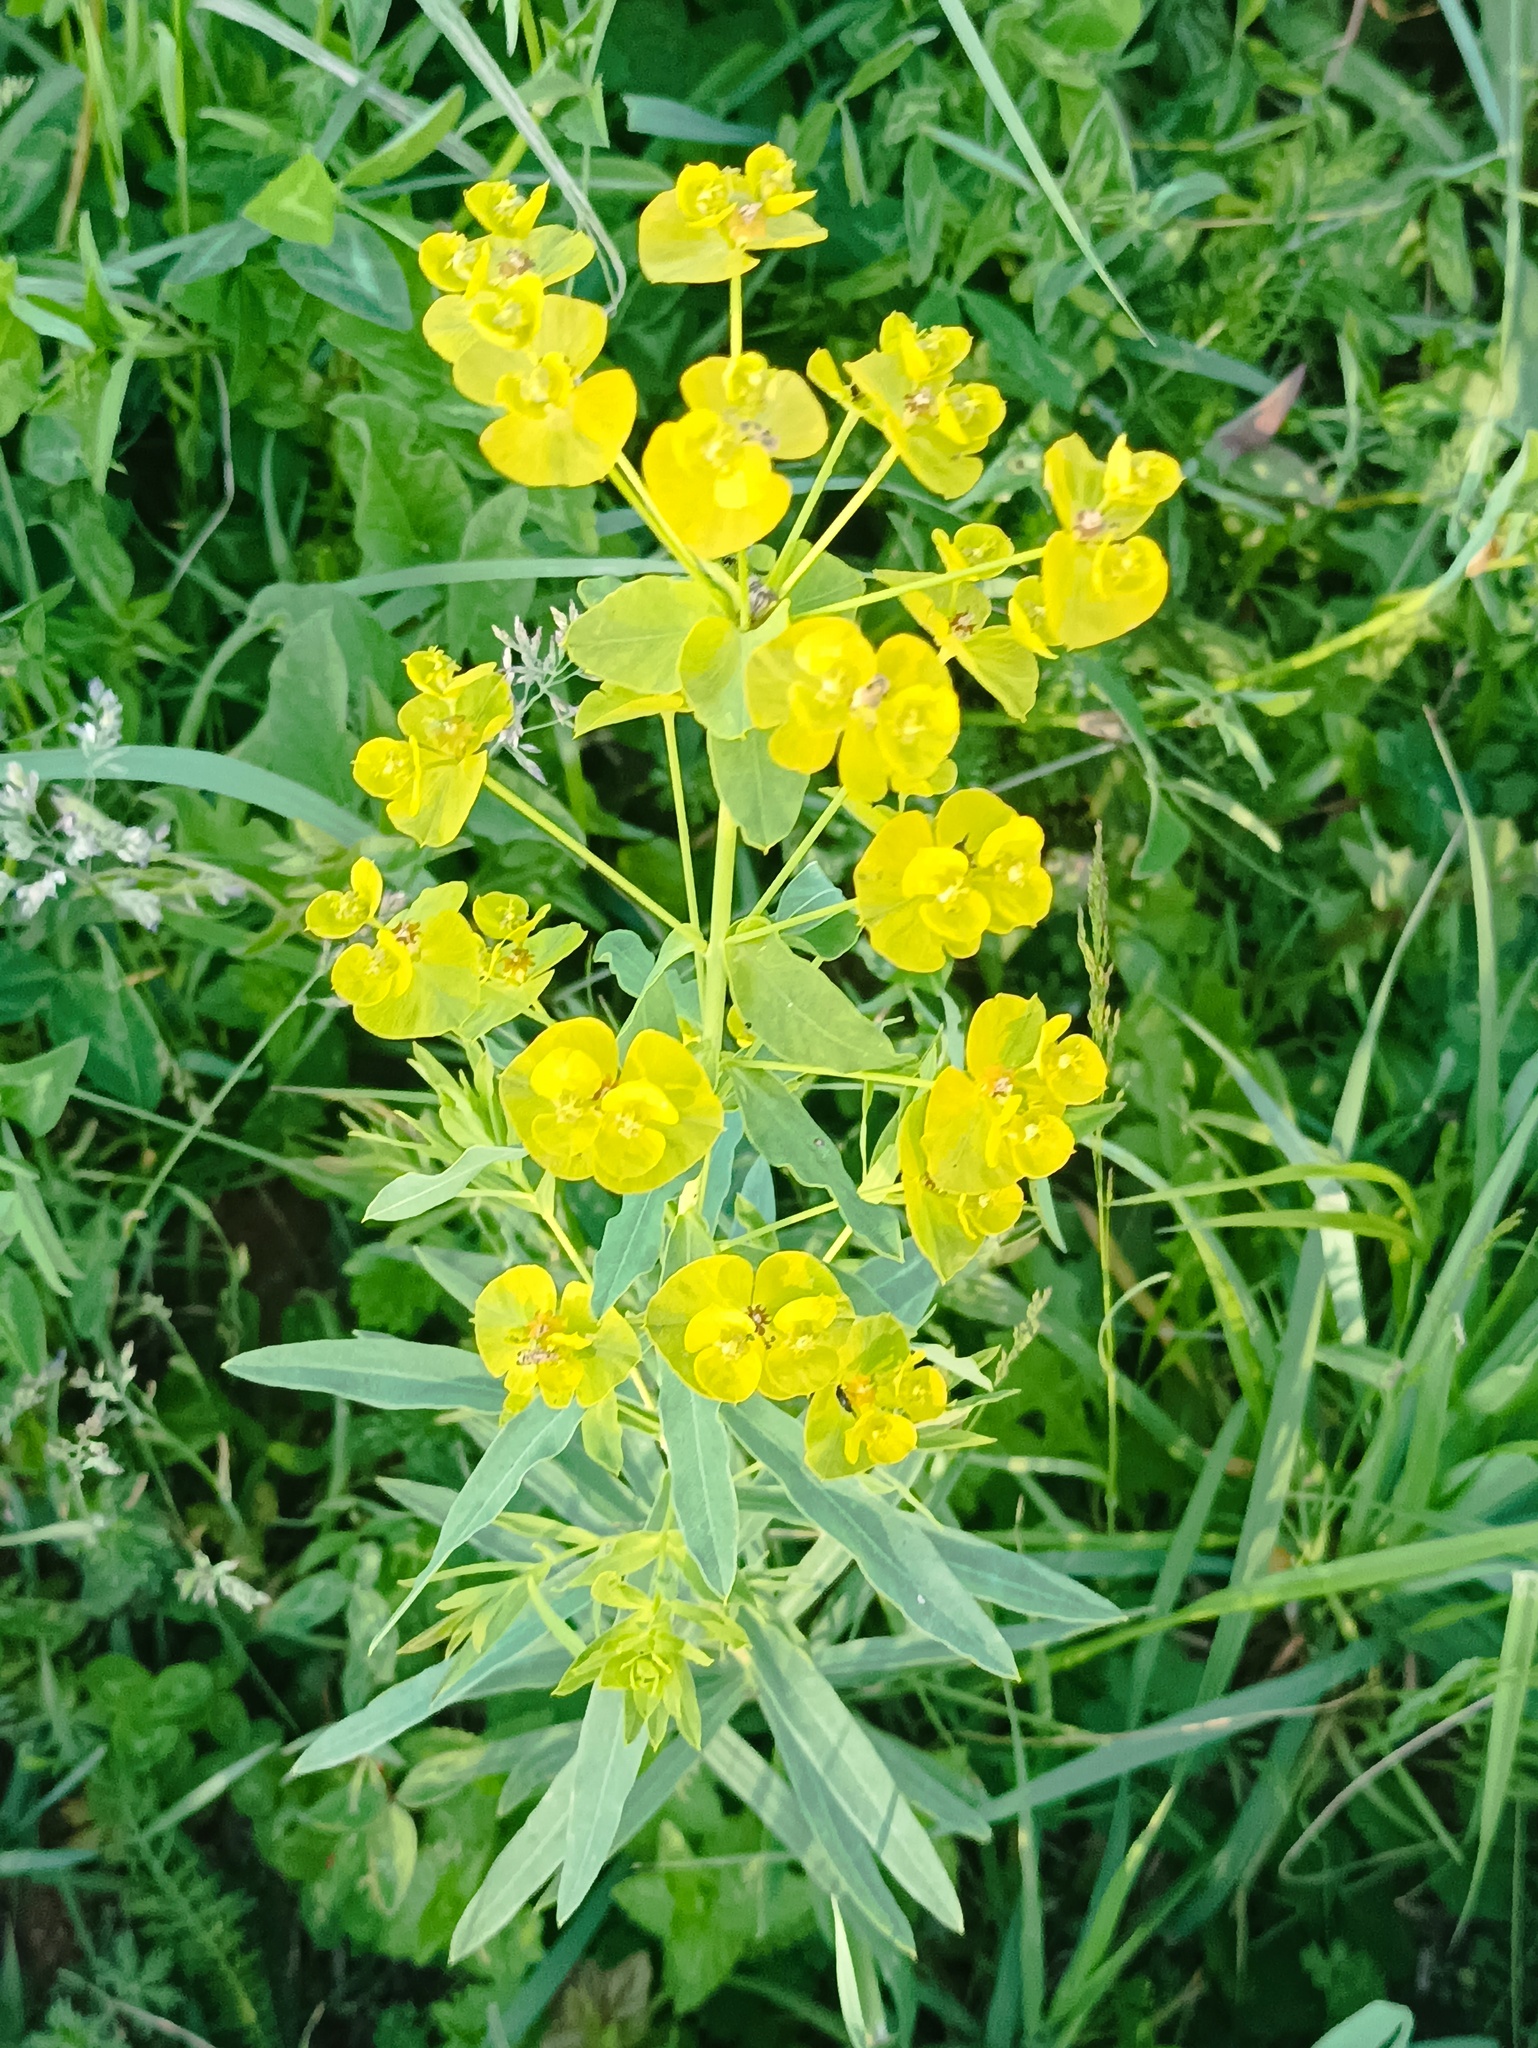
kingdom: Plantae
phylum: Tracheophyta
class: Magnoliopsida
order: Malpighiales
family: Euphorbiaceae
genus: Euphorbia
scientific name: Euphorbia virgata
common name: Leafy spurge
